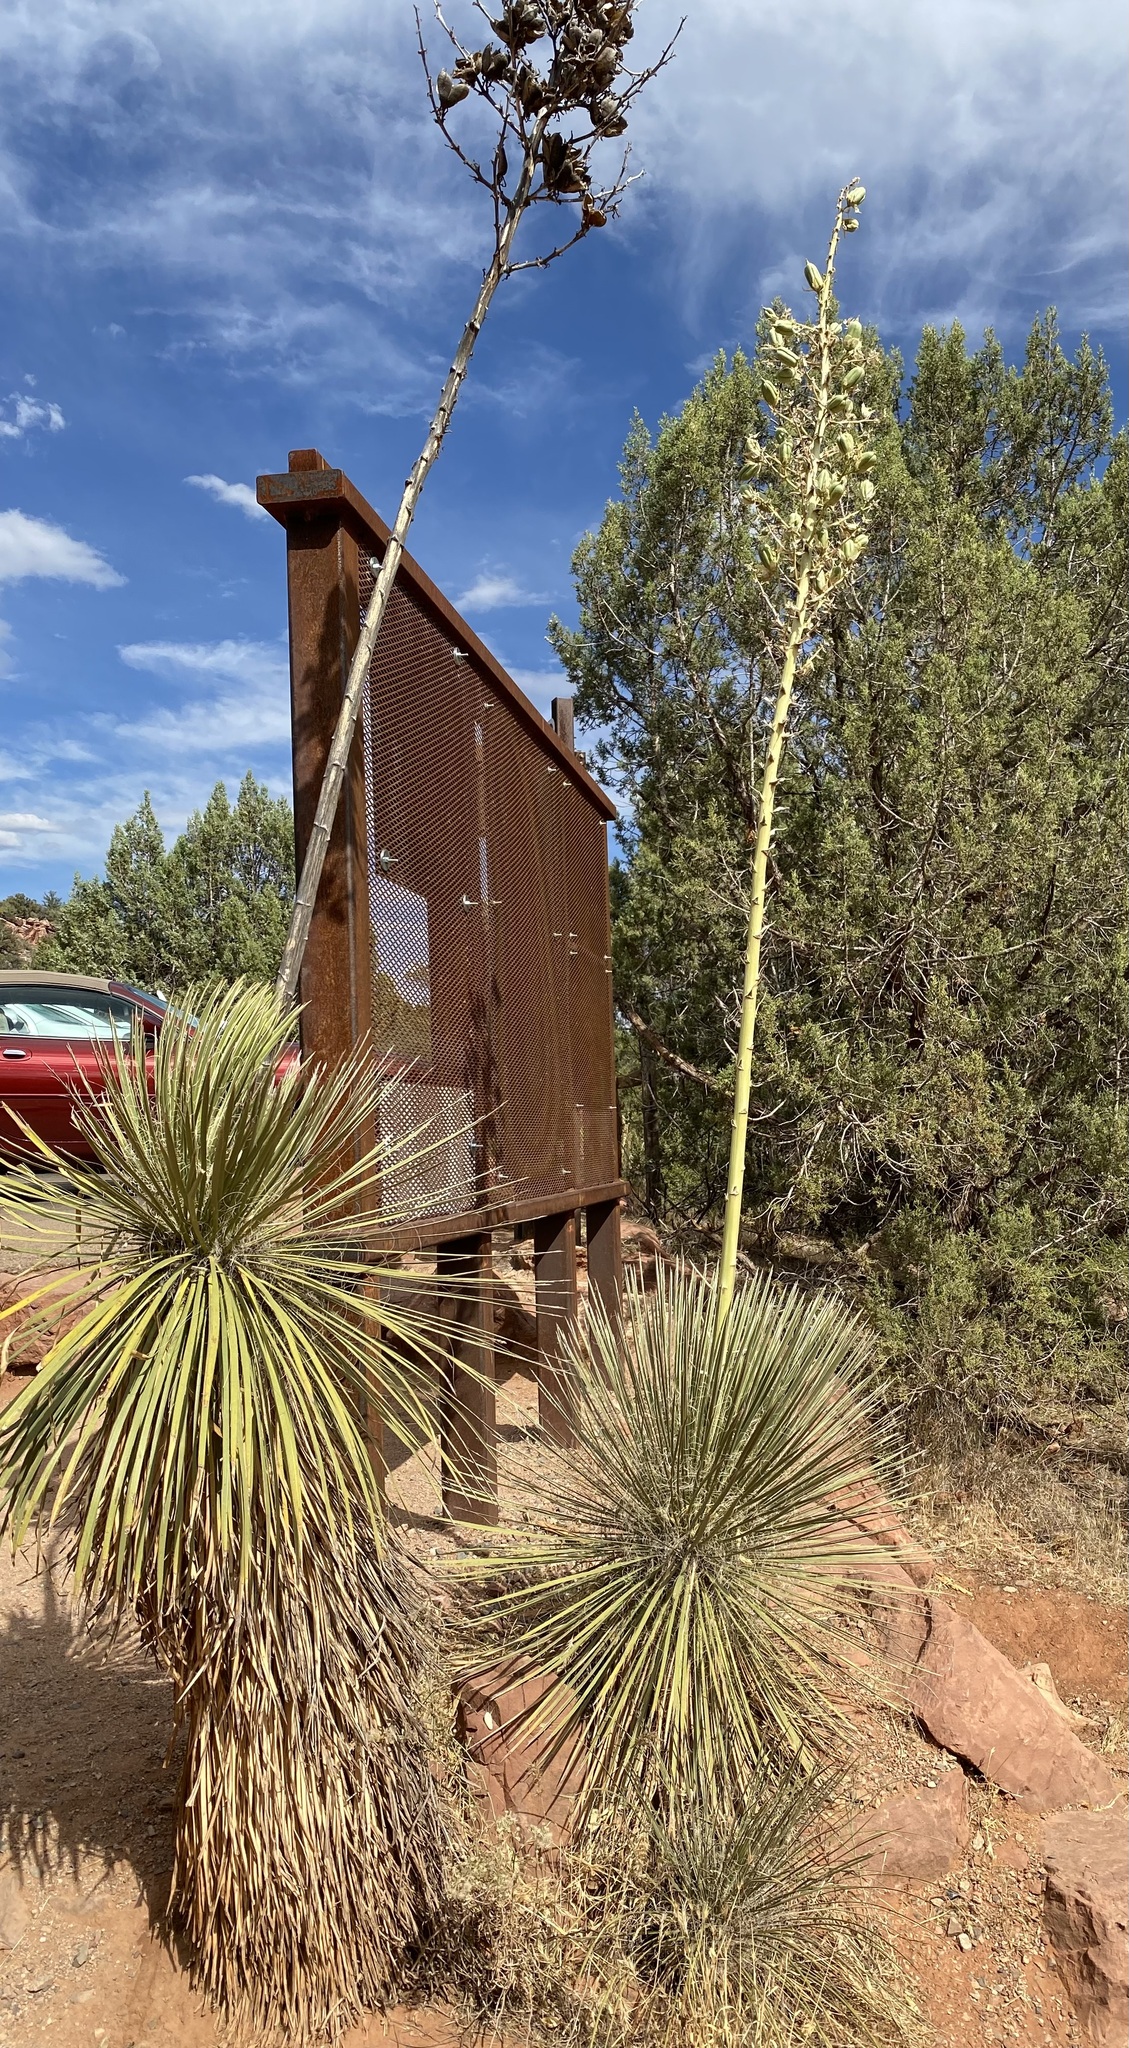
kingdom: Plantae
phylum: Tracheophyta
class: Liliopsida
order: Asparagales
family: Asparagaceae
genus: Yucca
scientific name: Yucca elata
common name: Palmella
